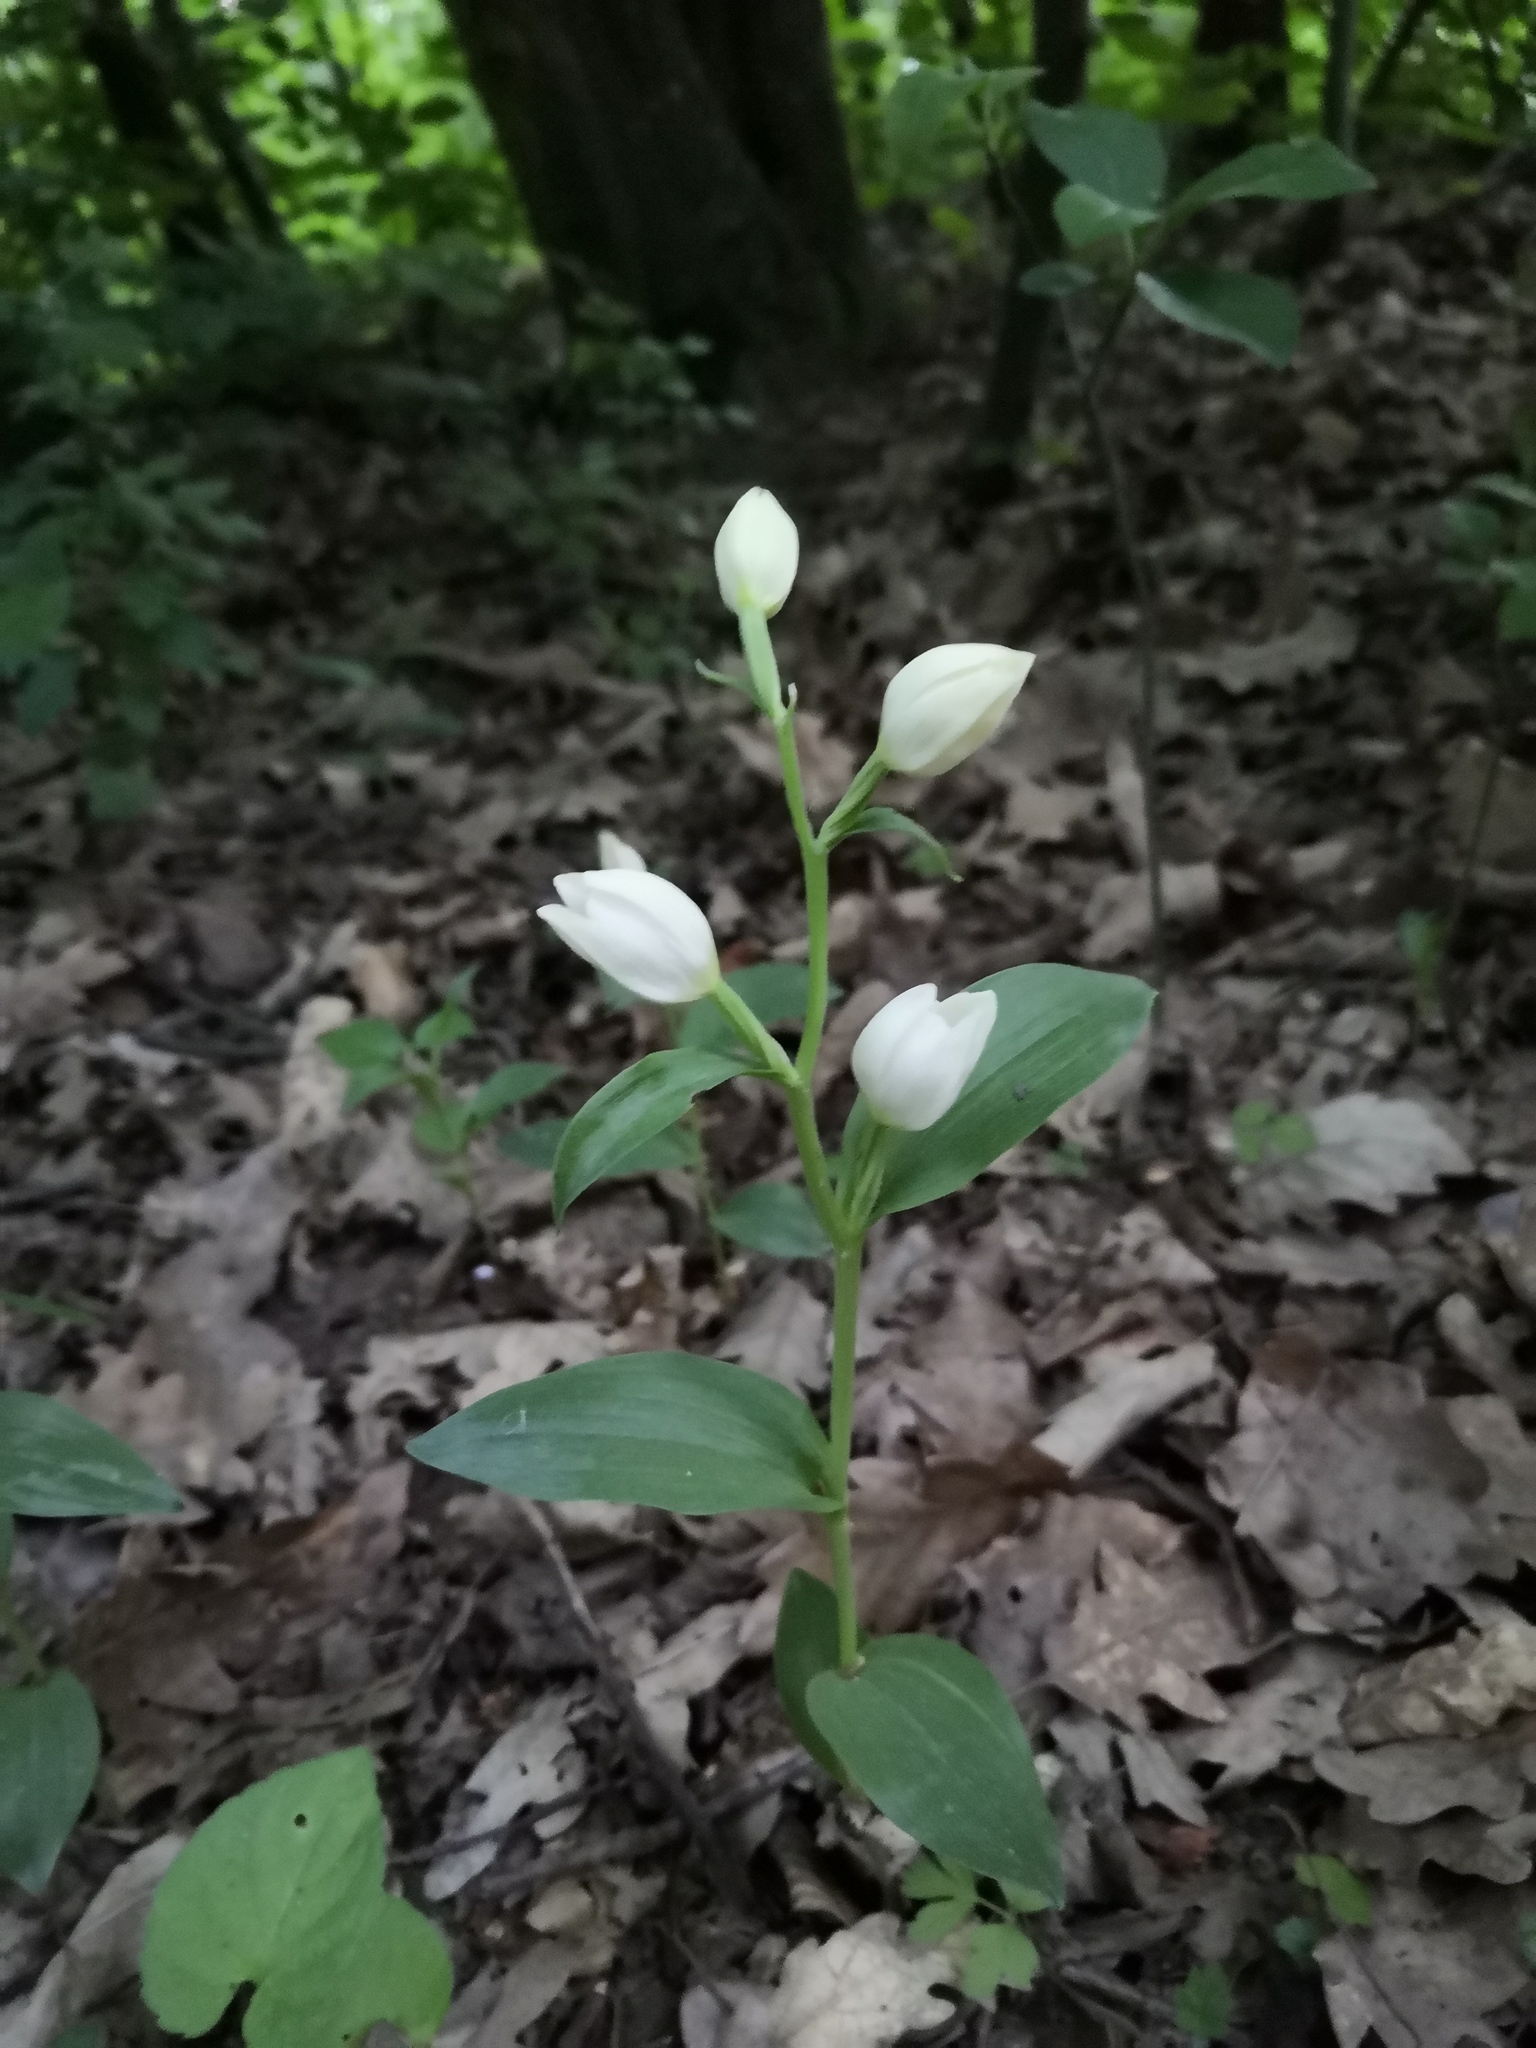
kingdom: Plantae
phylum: Tracheophyta
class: Liliopsida
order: Asparagales
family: Orchidaceae
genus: Cephalanthera
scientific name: Cephalanthera damasonium
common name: White helleborine
